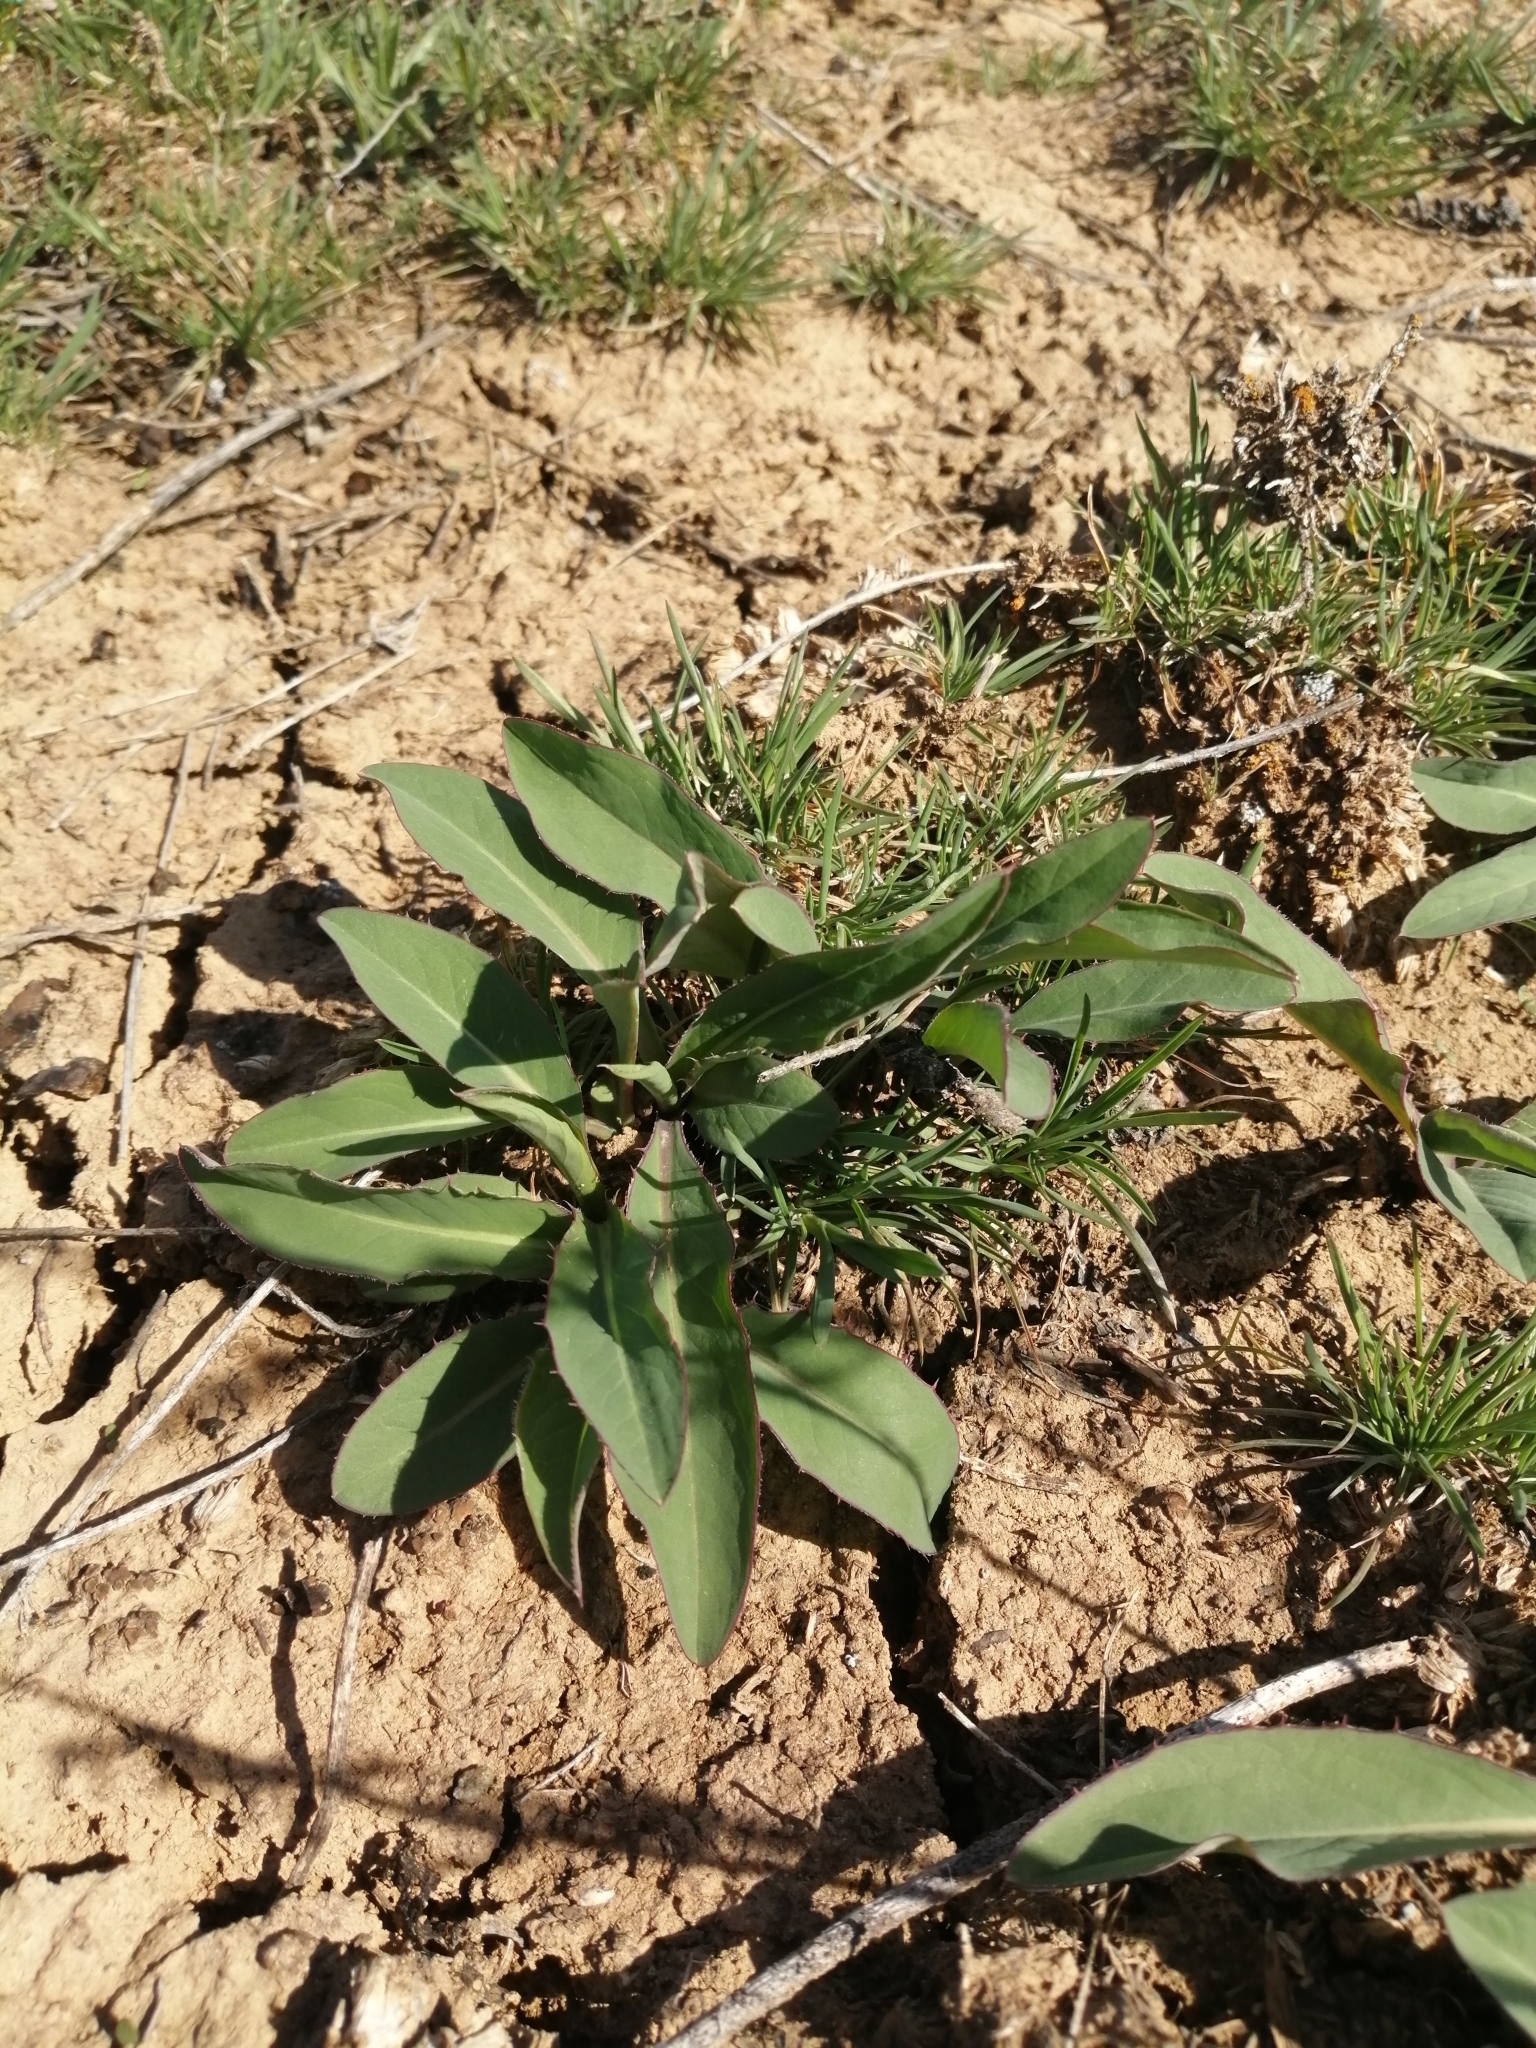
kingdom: Plantae
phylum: Tracheophyta
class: Magnoliopsida
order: Asterales
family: Asteraceae
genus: Klasea
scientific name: Klasea cardunculus
